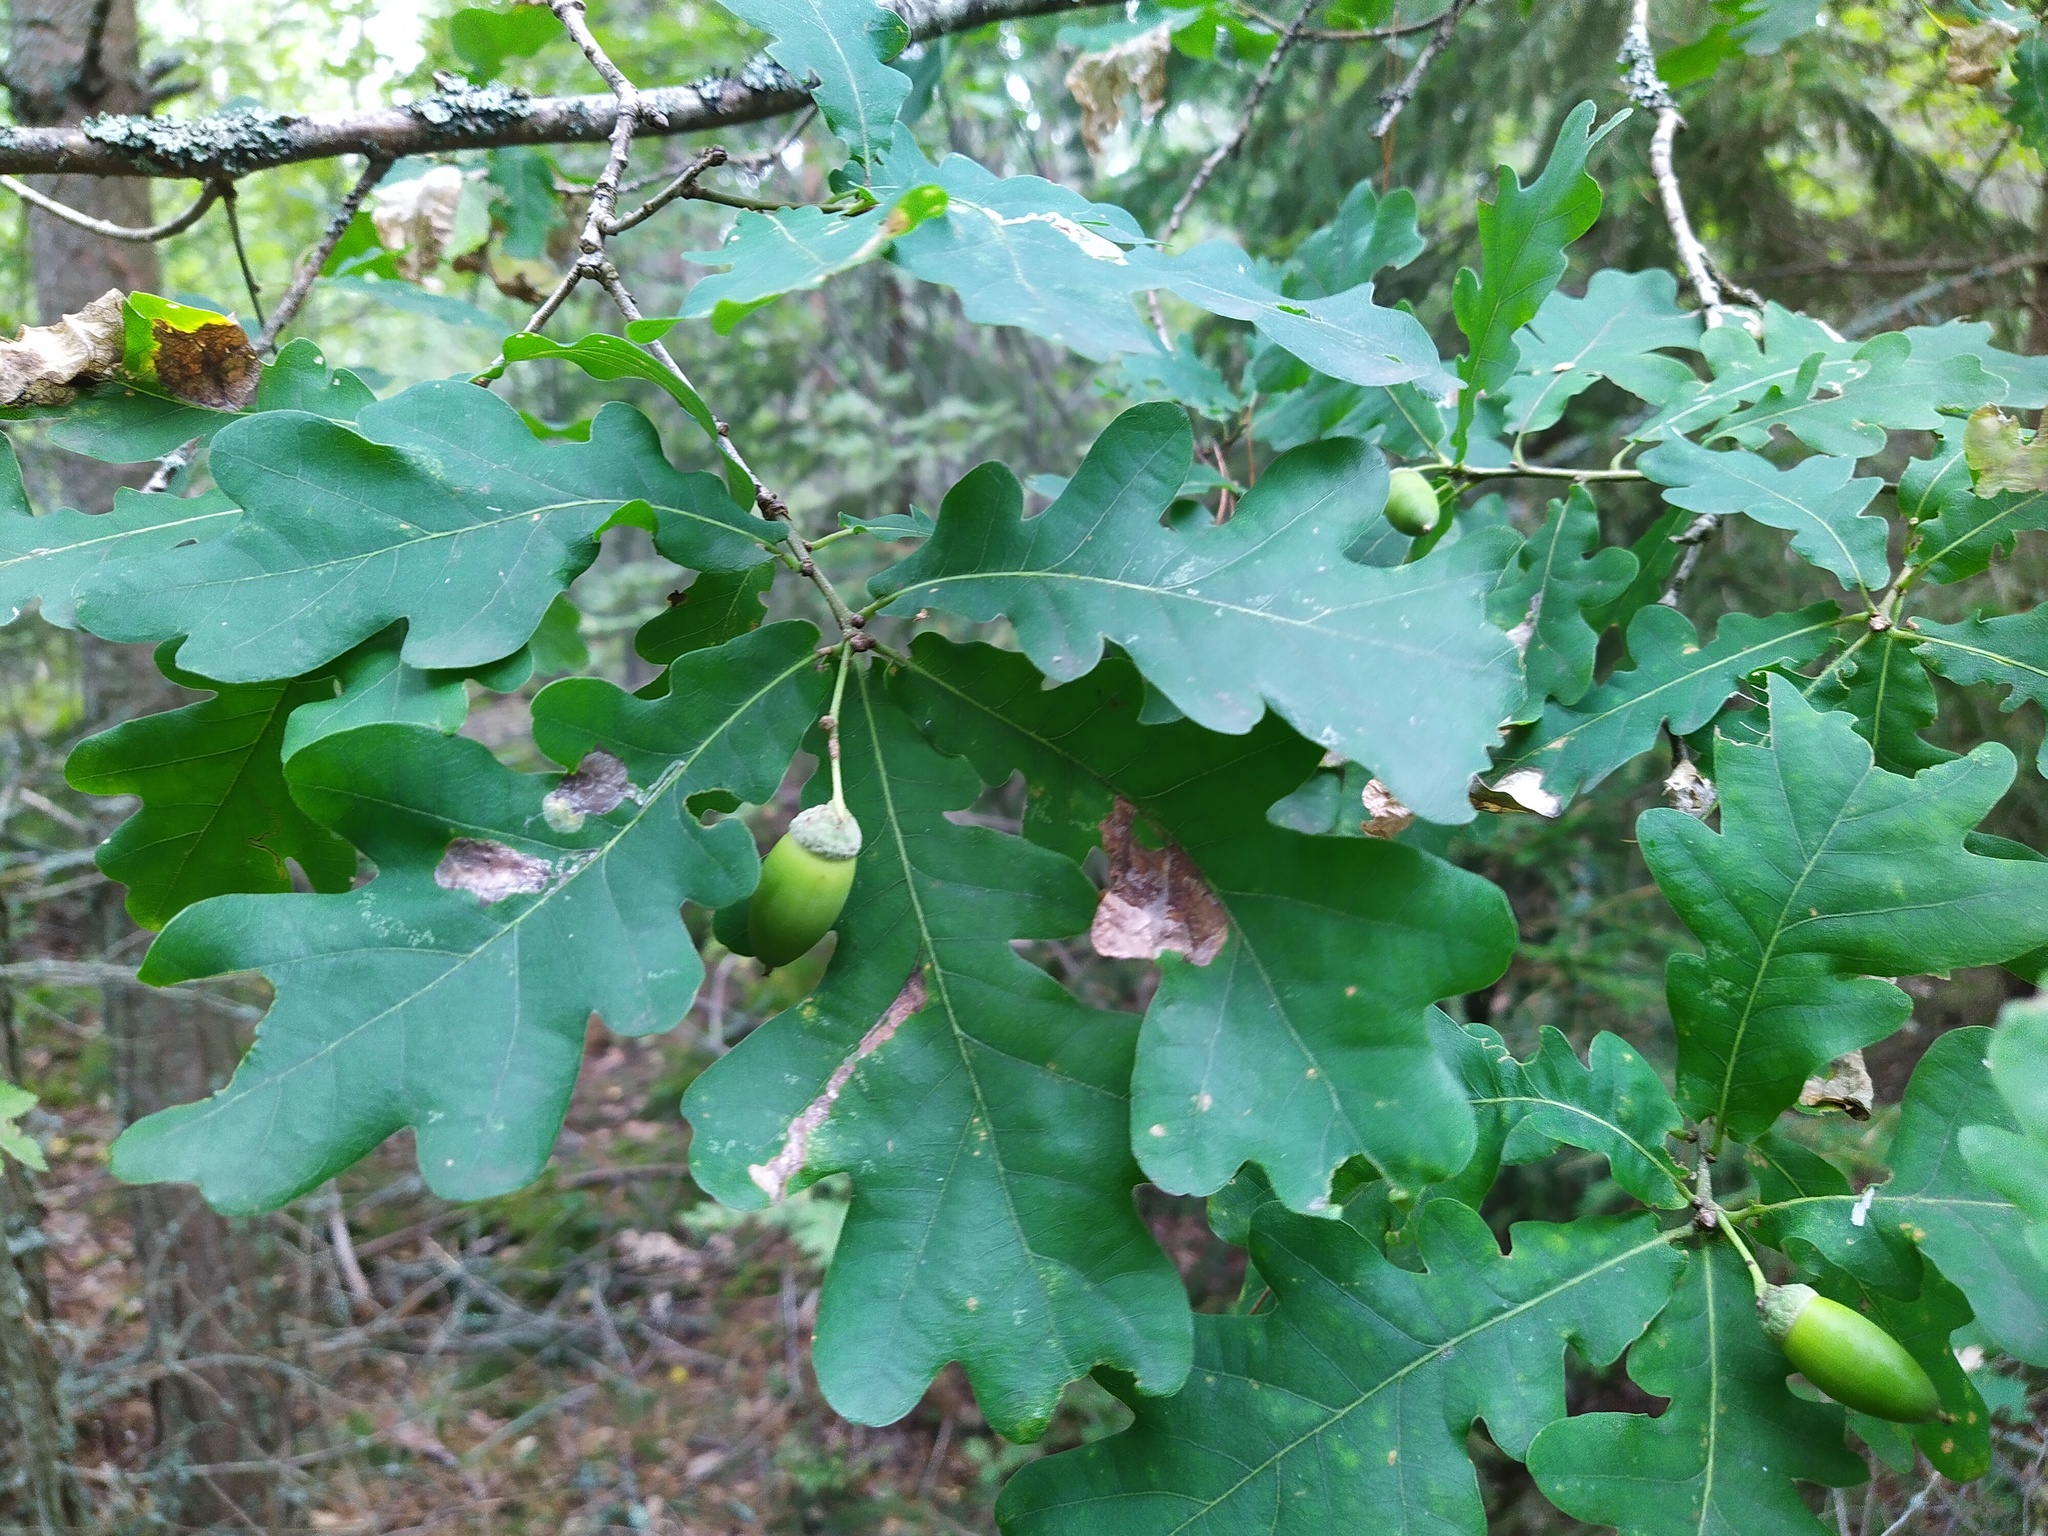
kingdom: Plantae
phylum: Tracheophyta
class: Magnoliopsida
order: Fagales
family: Fagaceae
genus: Quercus
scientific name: Quercus robur
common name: Pedunculate oak
